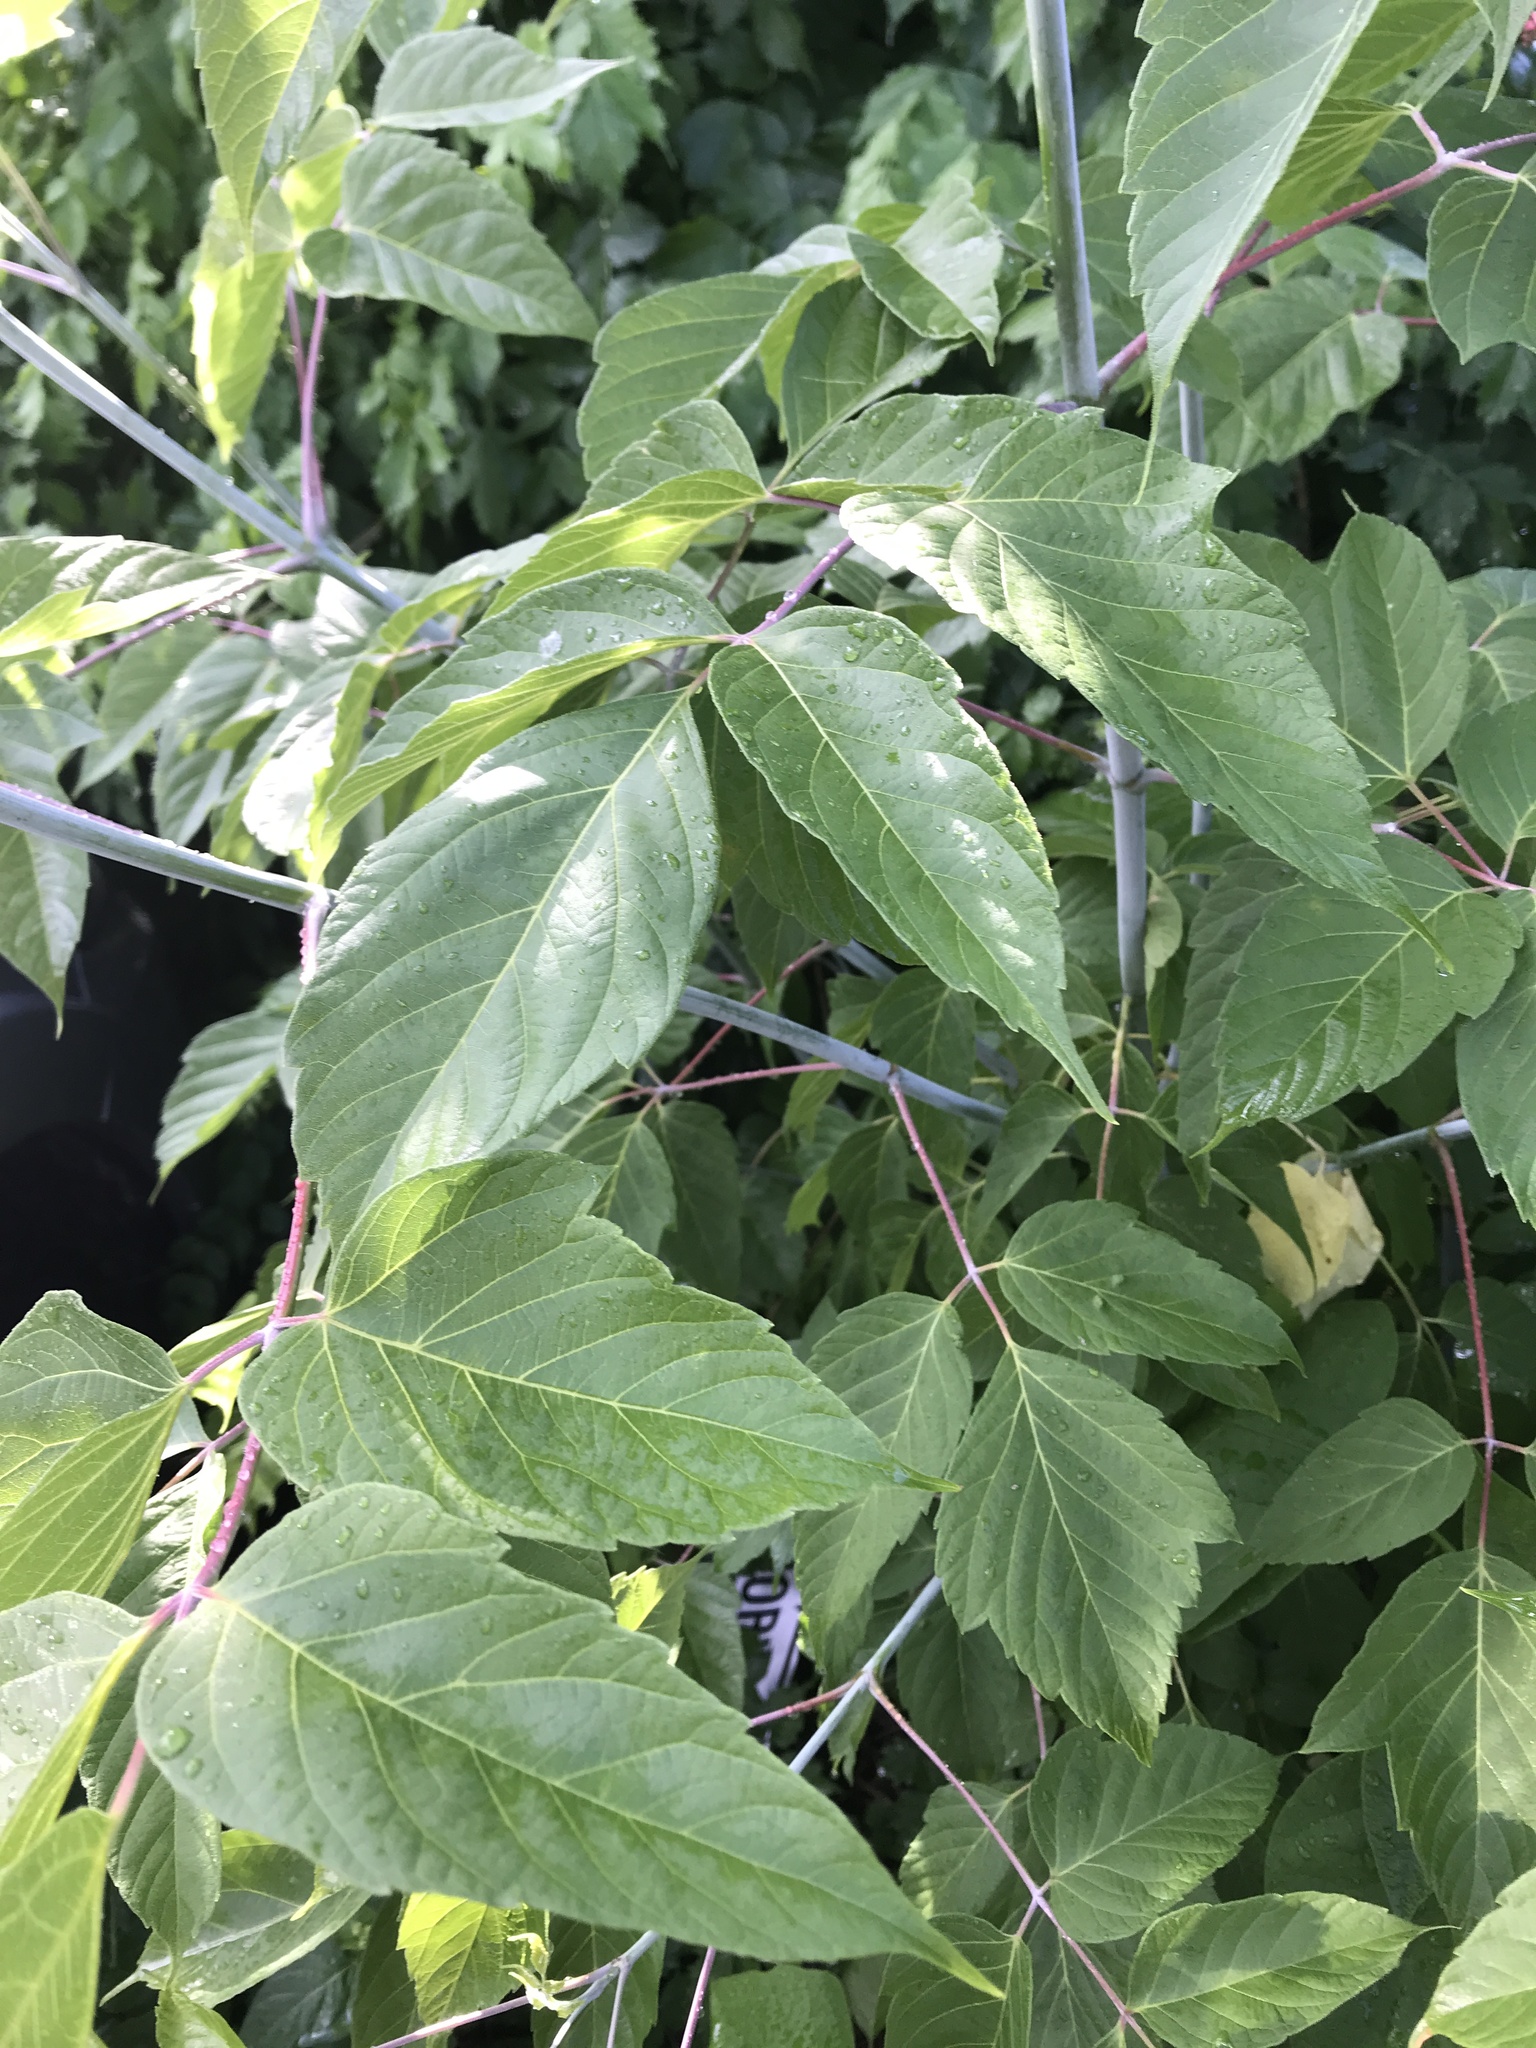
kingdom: Plantae
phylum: Tracheophyta
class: Magnoliopsida
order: Sapindales
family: Sapindaceae
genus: Acer
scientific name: Acer negundo
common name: Ashleaf maple
